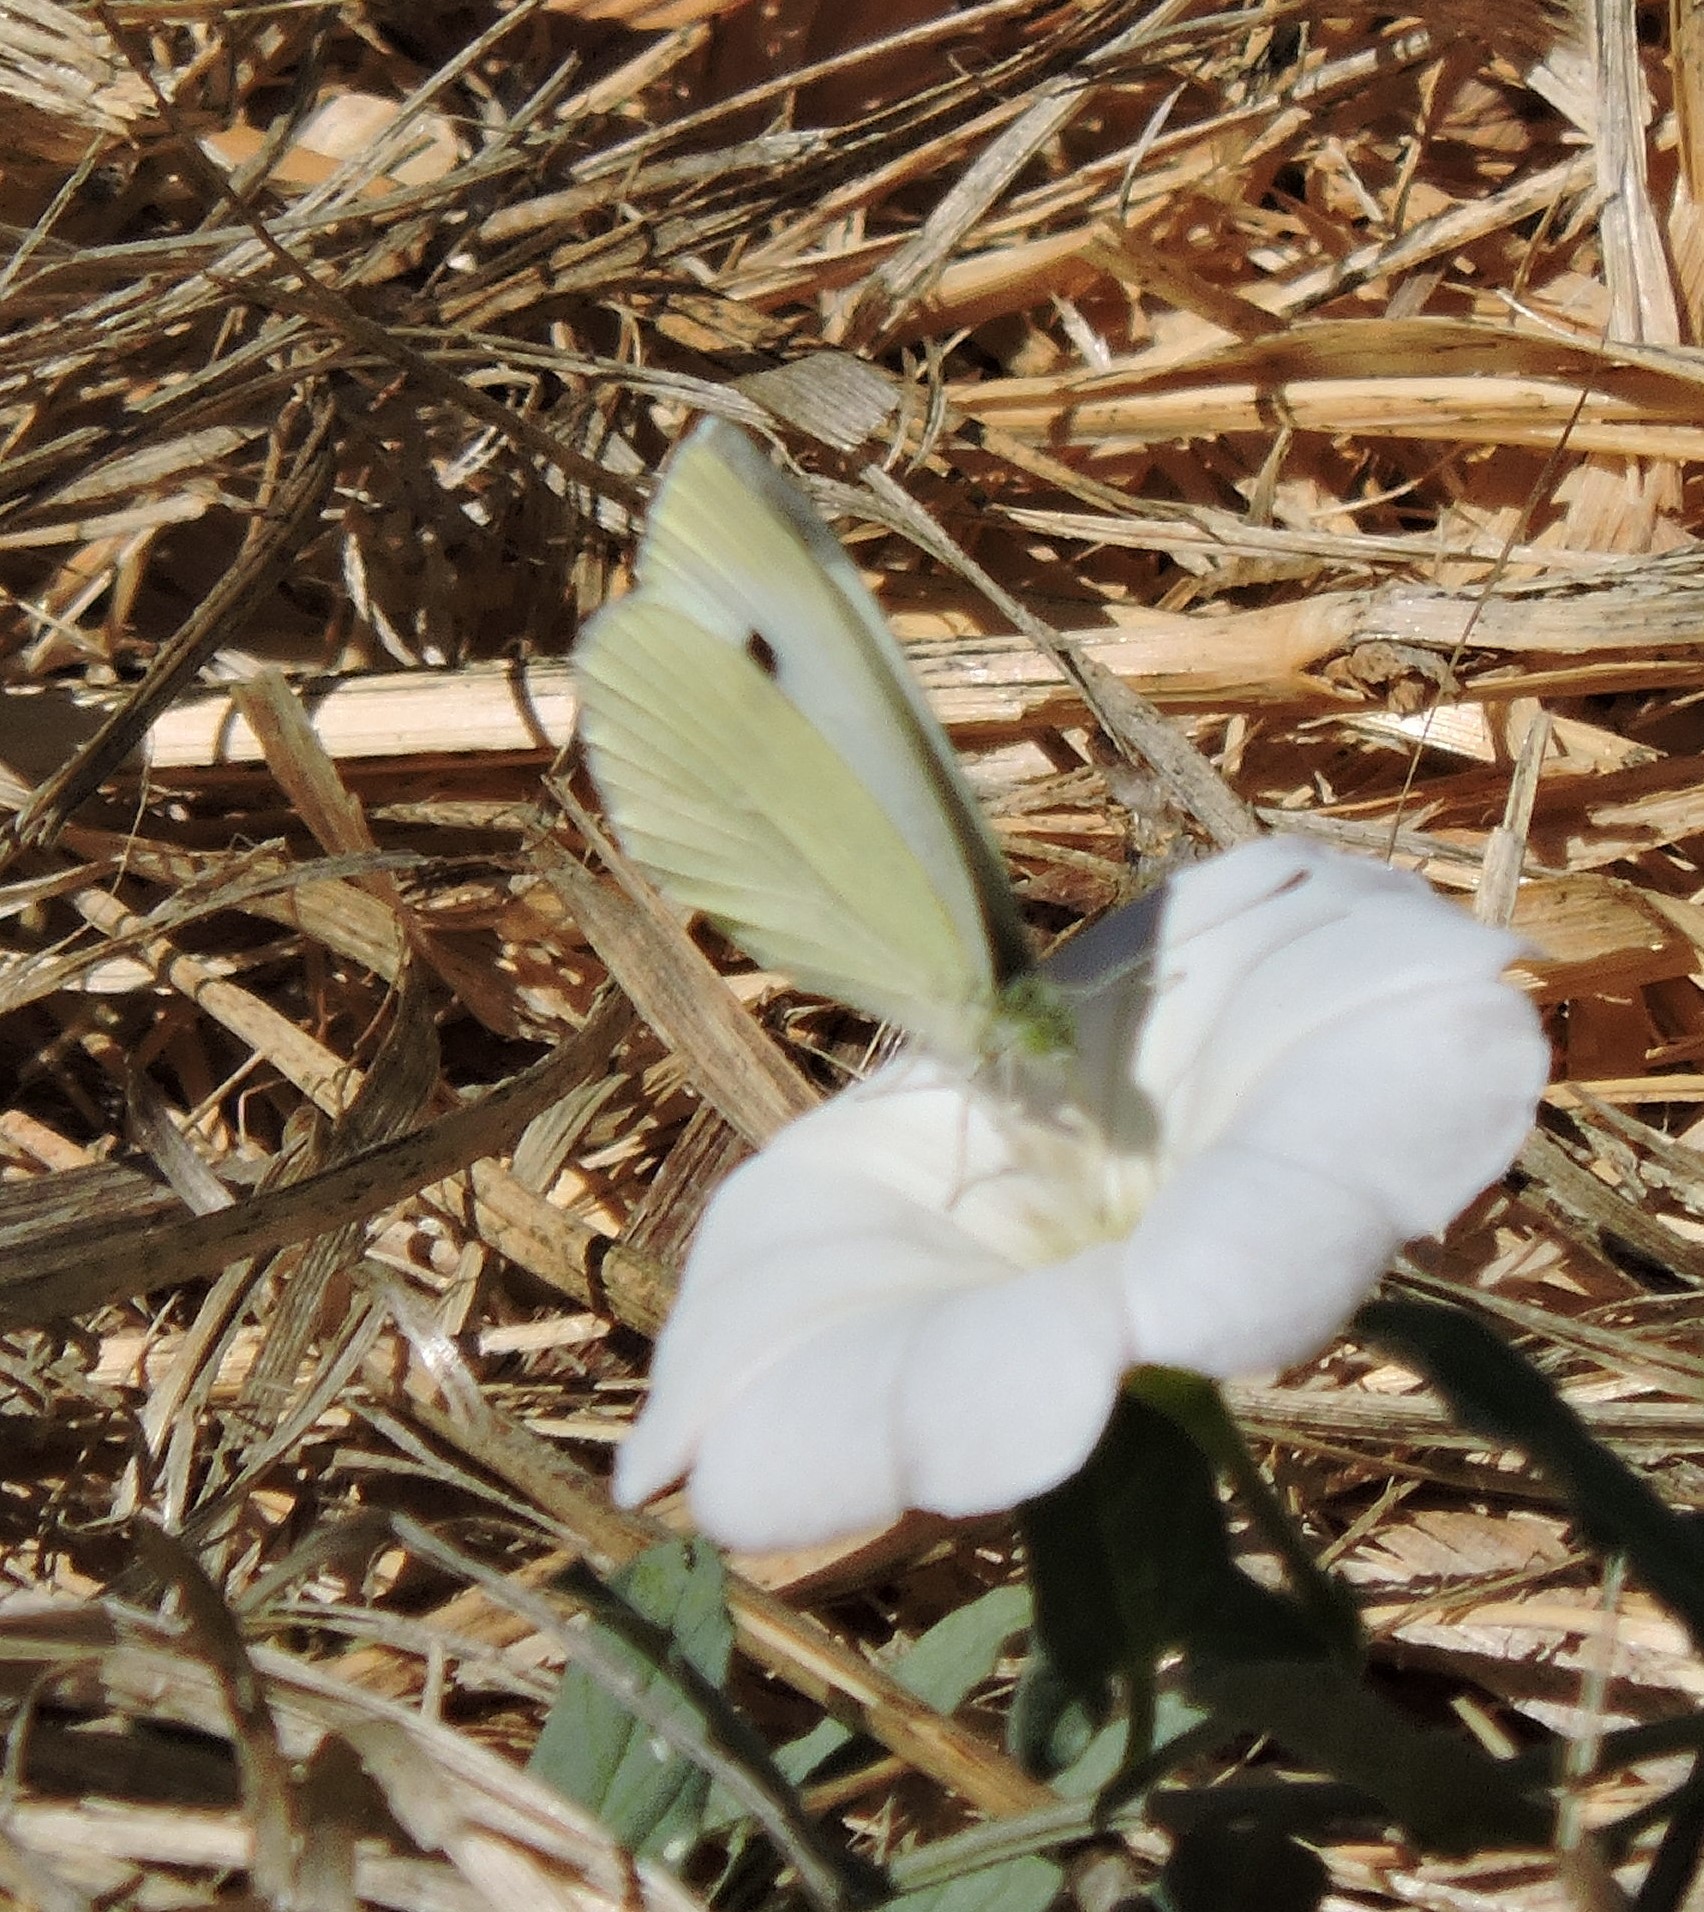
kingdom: Animalia
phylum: Arthropoda
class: Insecta
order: Lepidoptera
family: Pieridae
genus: Pieris
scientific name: Pieris rapae
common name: Small white
